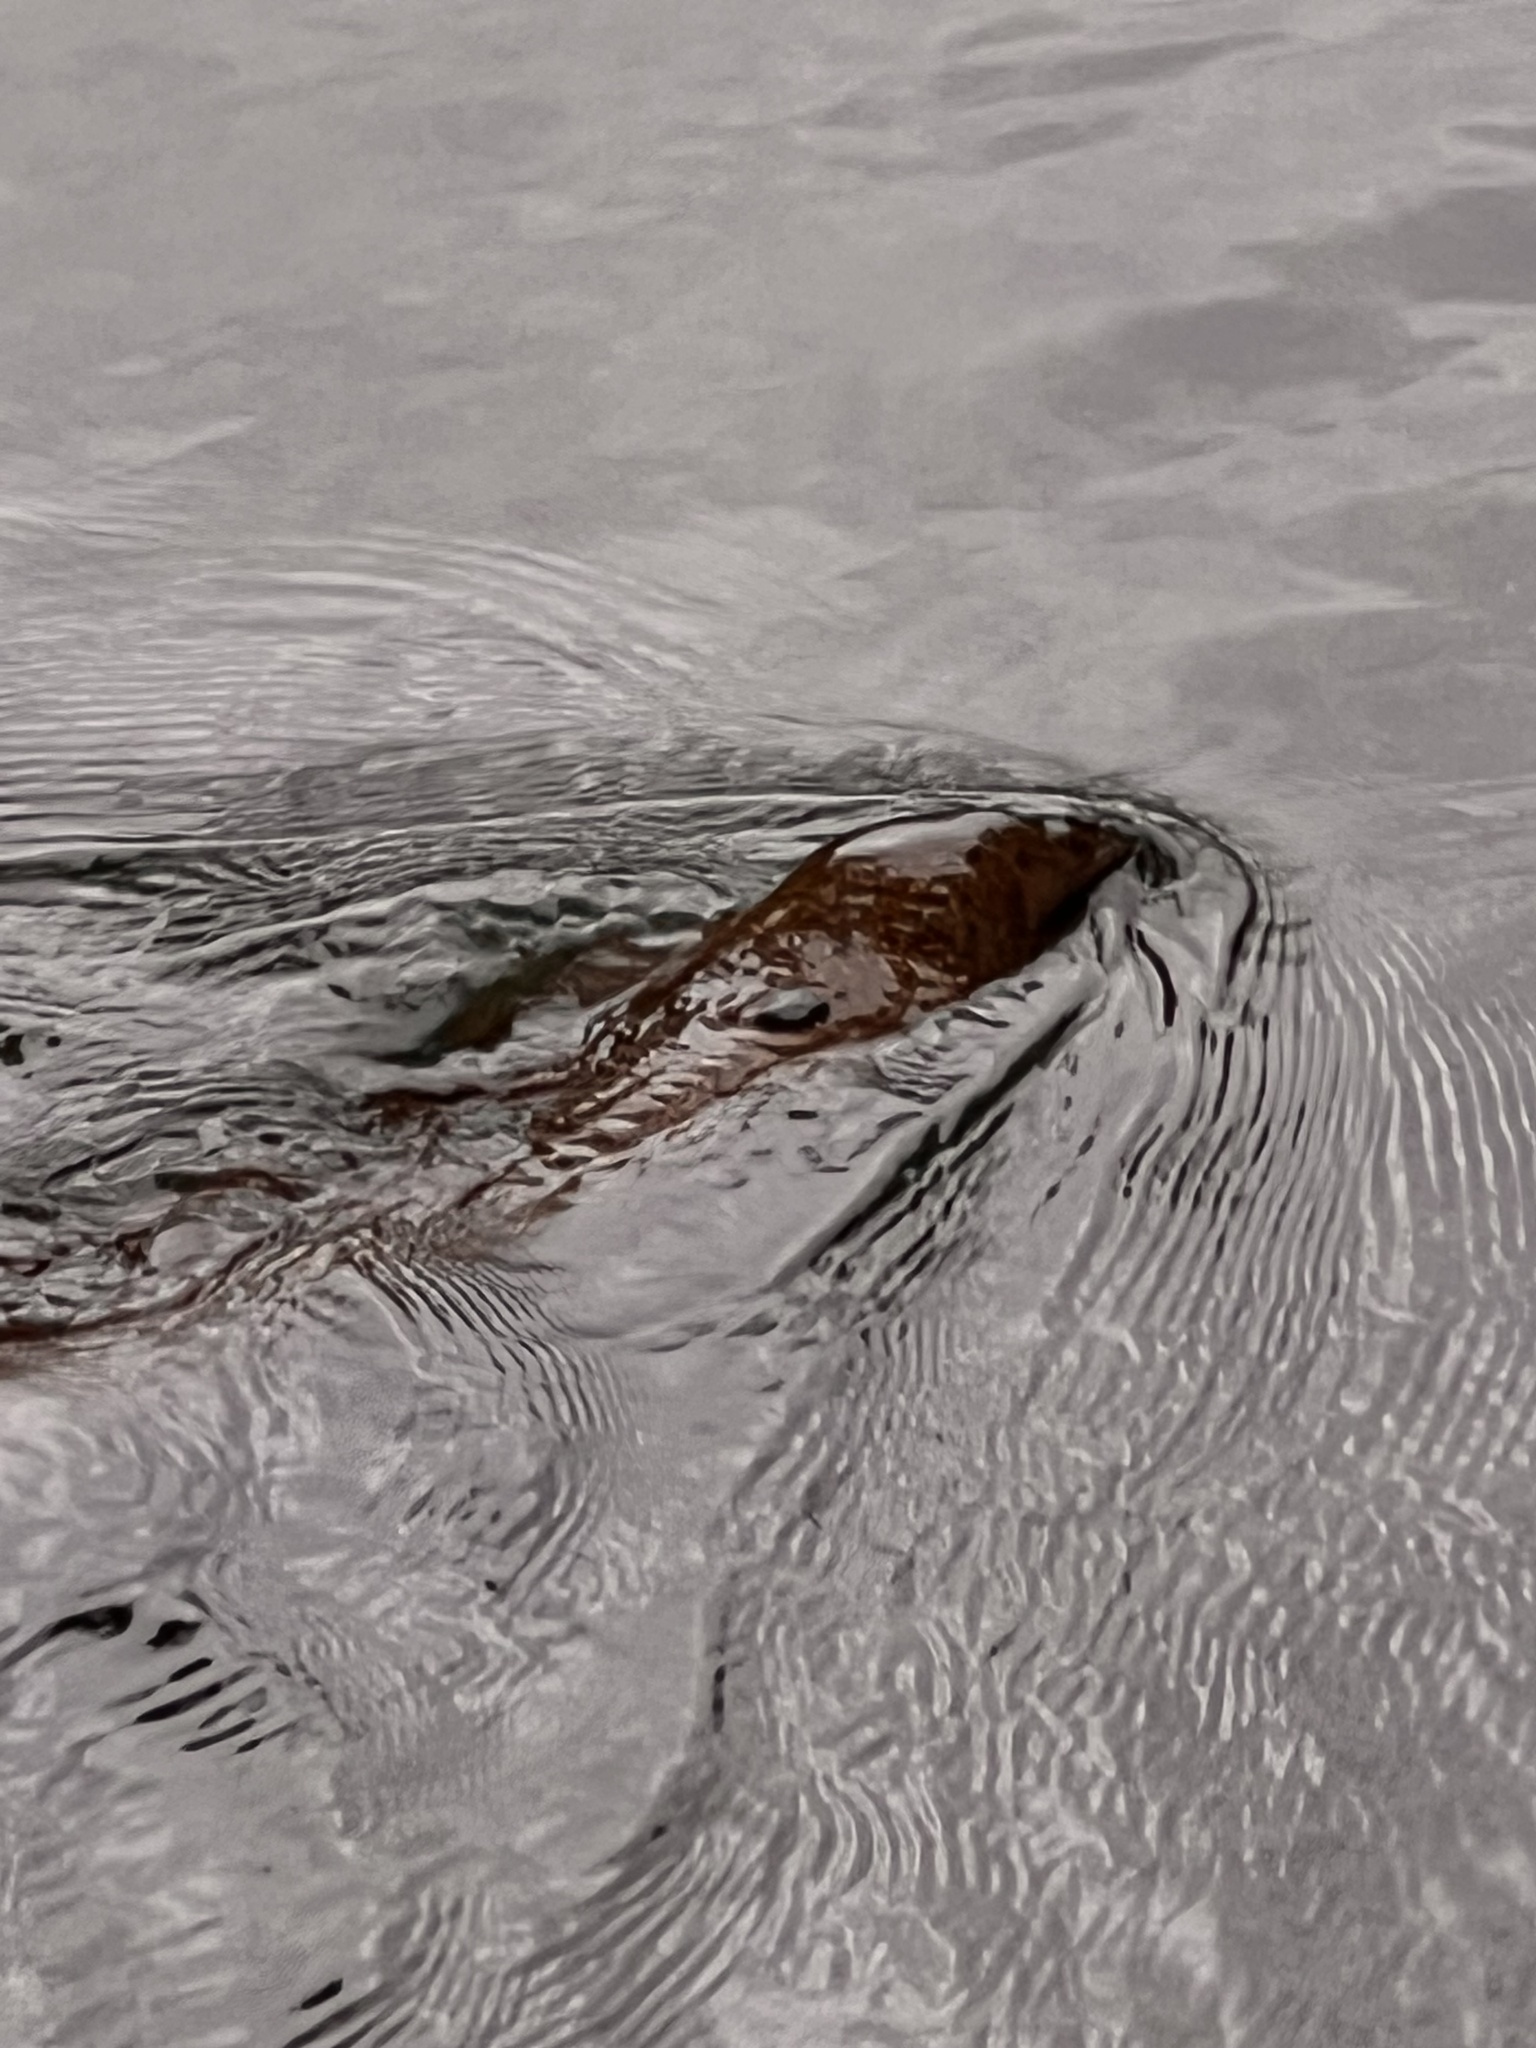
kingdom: Animalia
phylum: Chordata
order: Anguilliformes
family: Muraenidae
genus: Gymnothorax
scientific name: Gymnothorax flavimarginatus
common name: Yellow-edged moray
